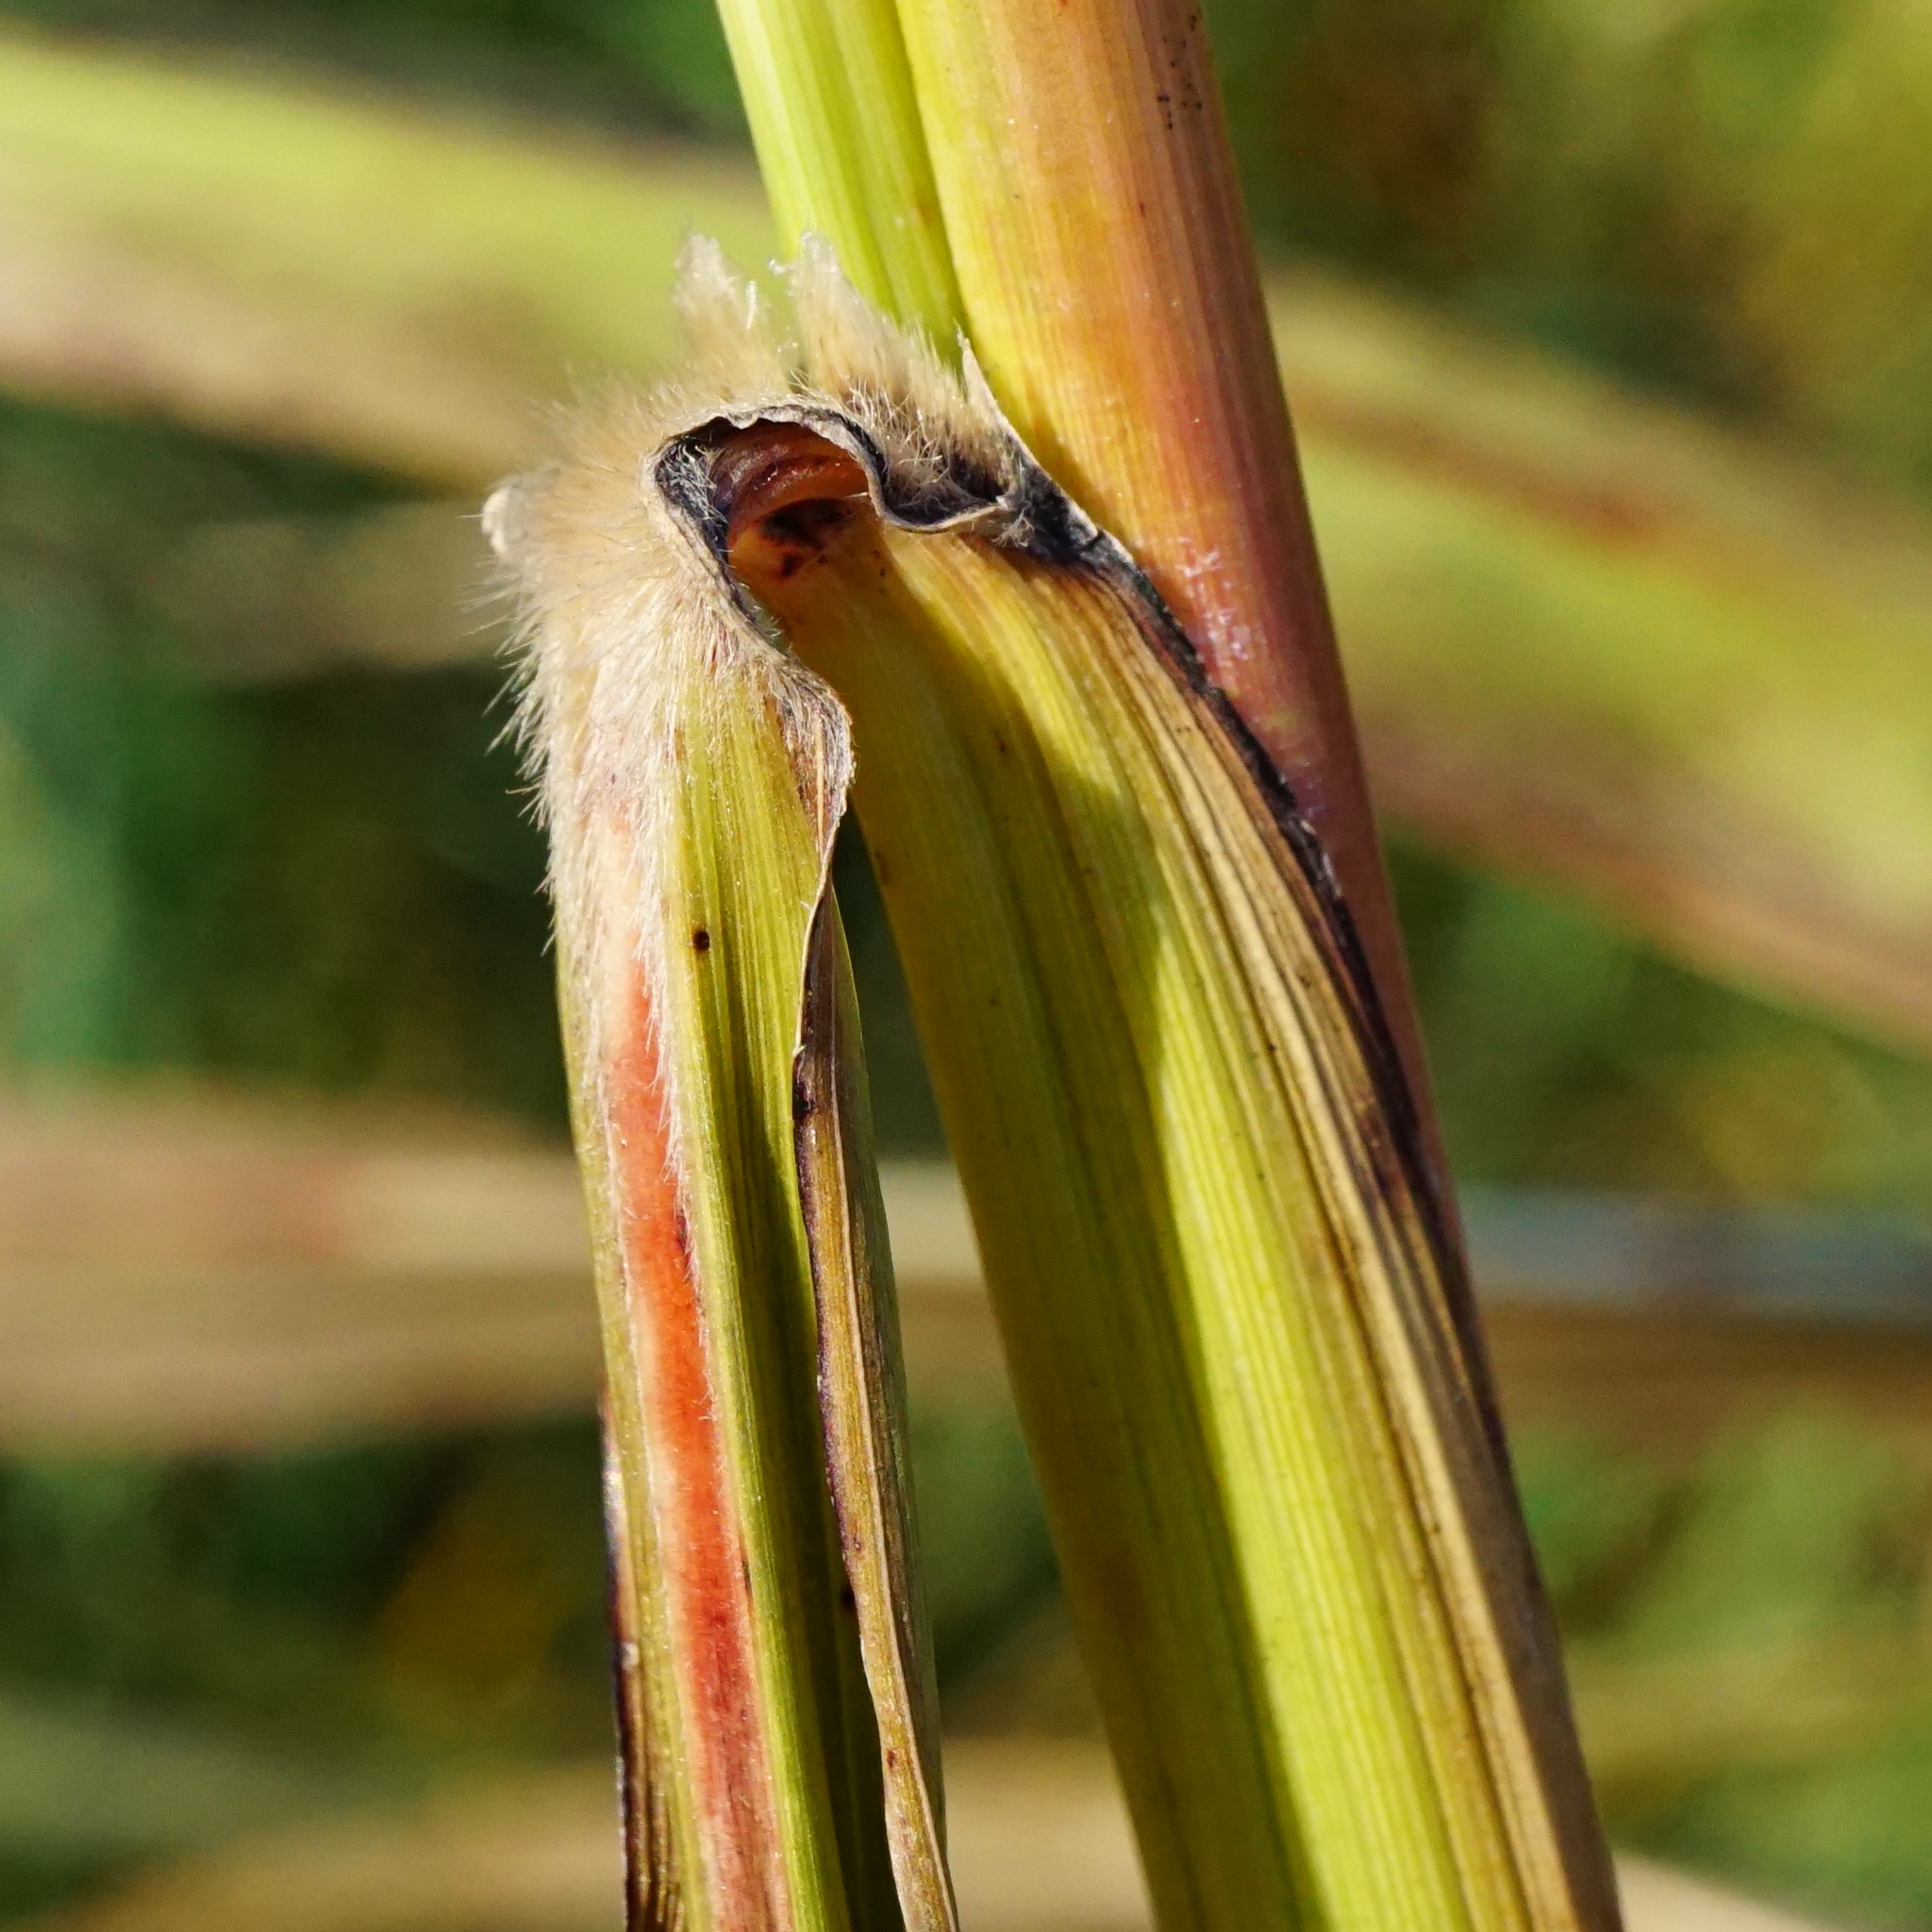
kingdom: Plantae
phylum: Tracheophyta
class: Liliopsida
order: Poales
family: Poaceae
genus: Sorghum
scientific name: Sorghum halepense
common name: Johnson-grass
